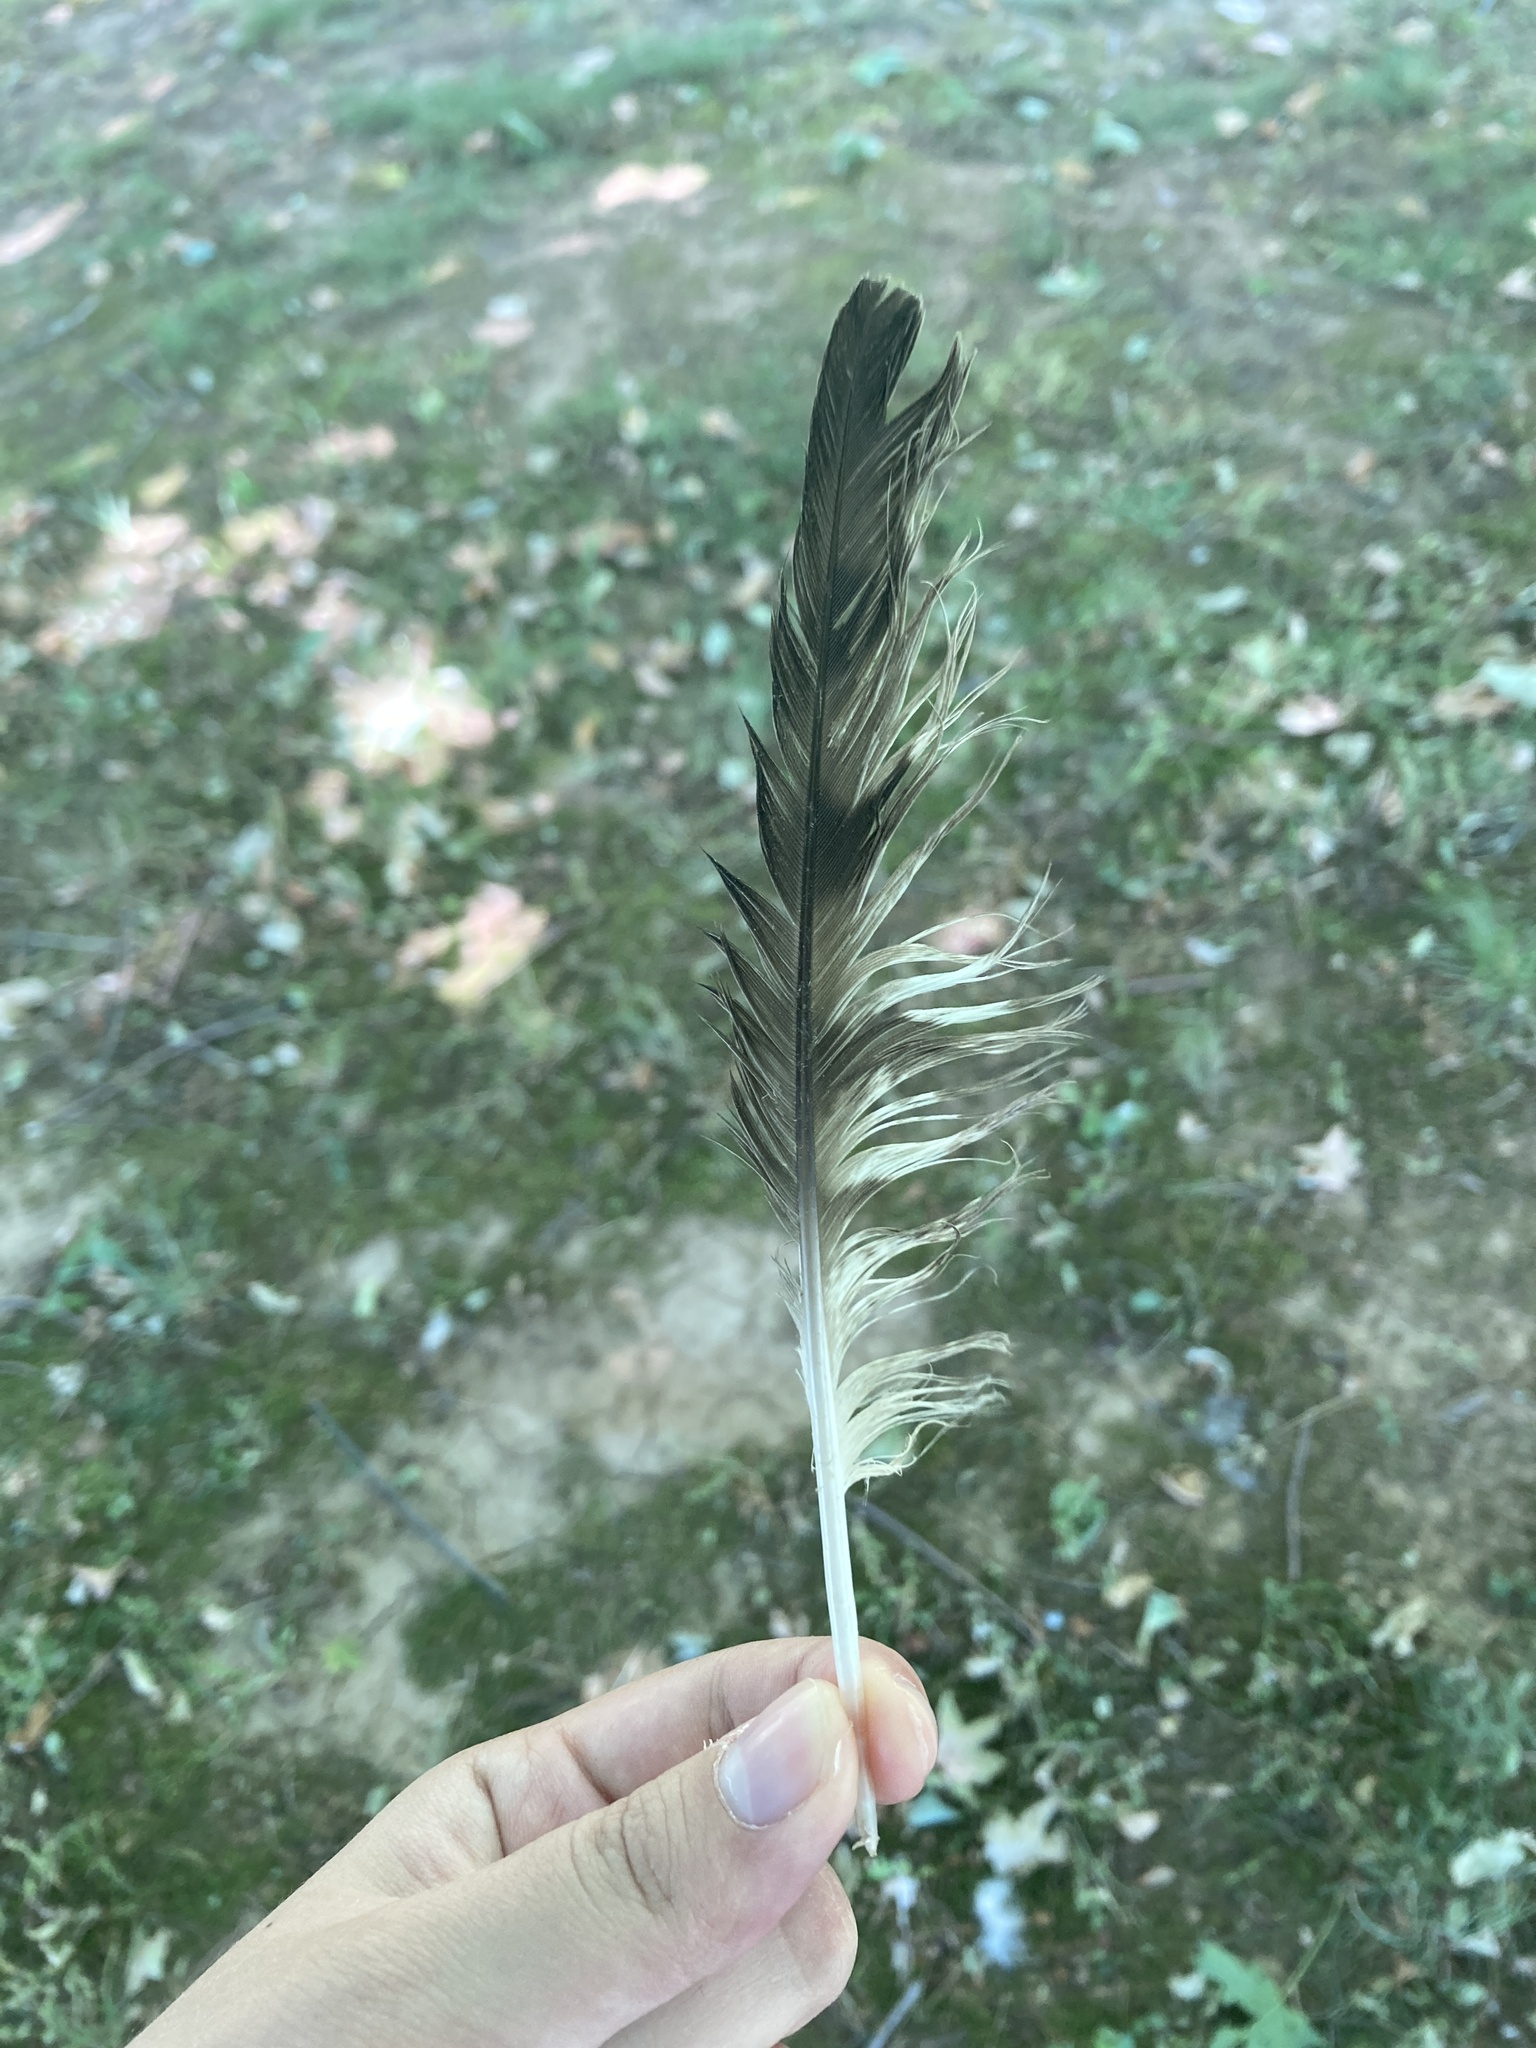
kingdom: Animalia
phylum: Chordata
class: Aves
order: Accipitriformes
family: Accipitridae
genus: Accipiter
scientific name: Accipiter cooperii
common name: Cooper's hawk
